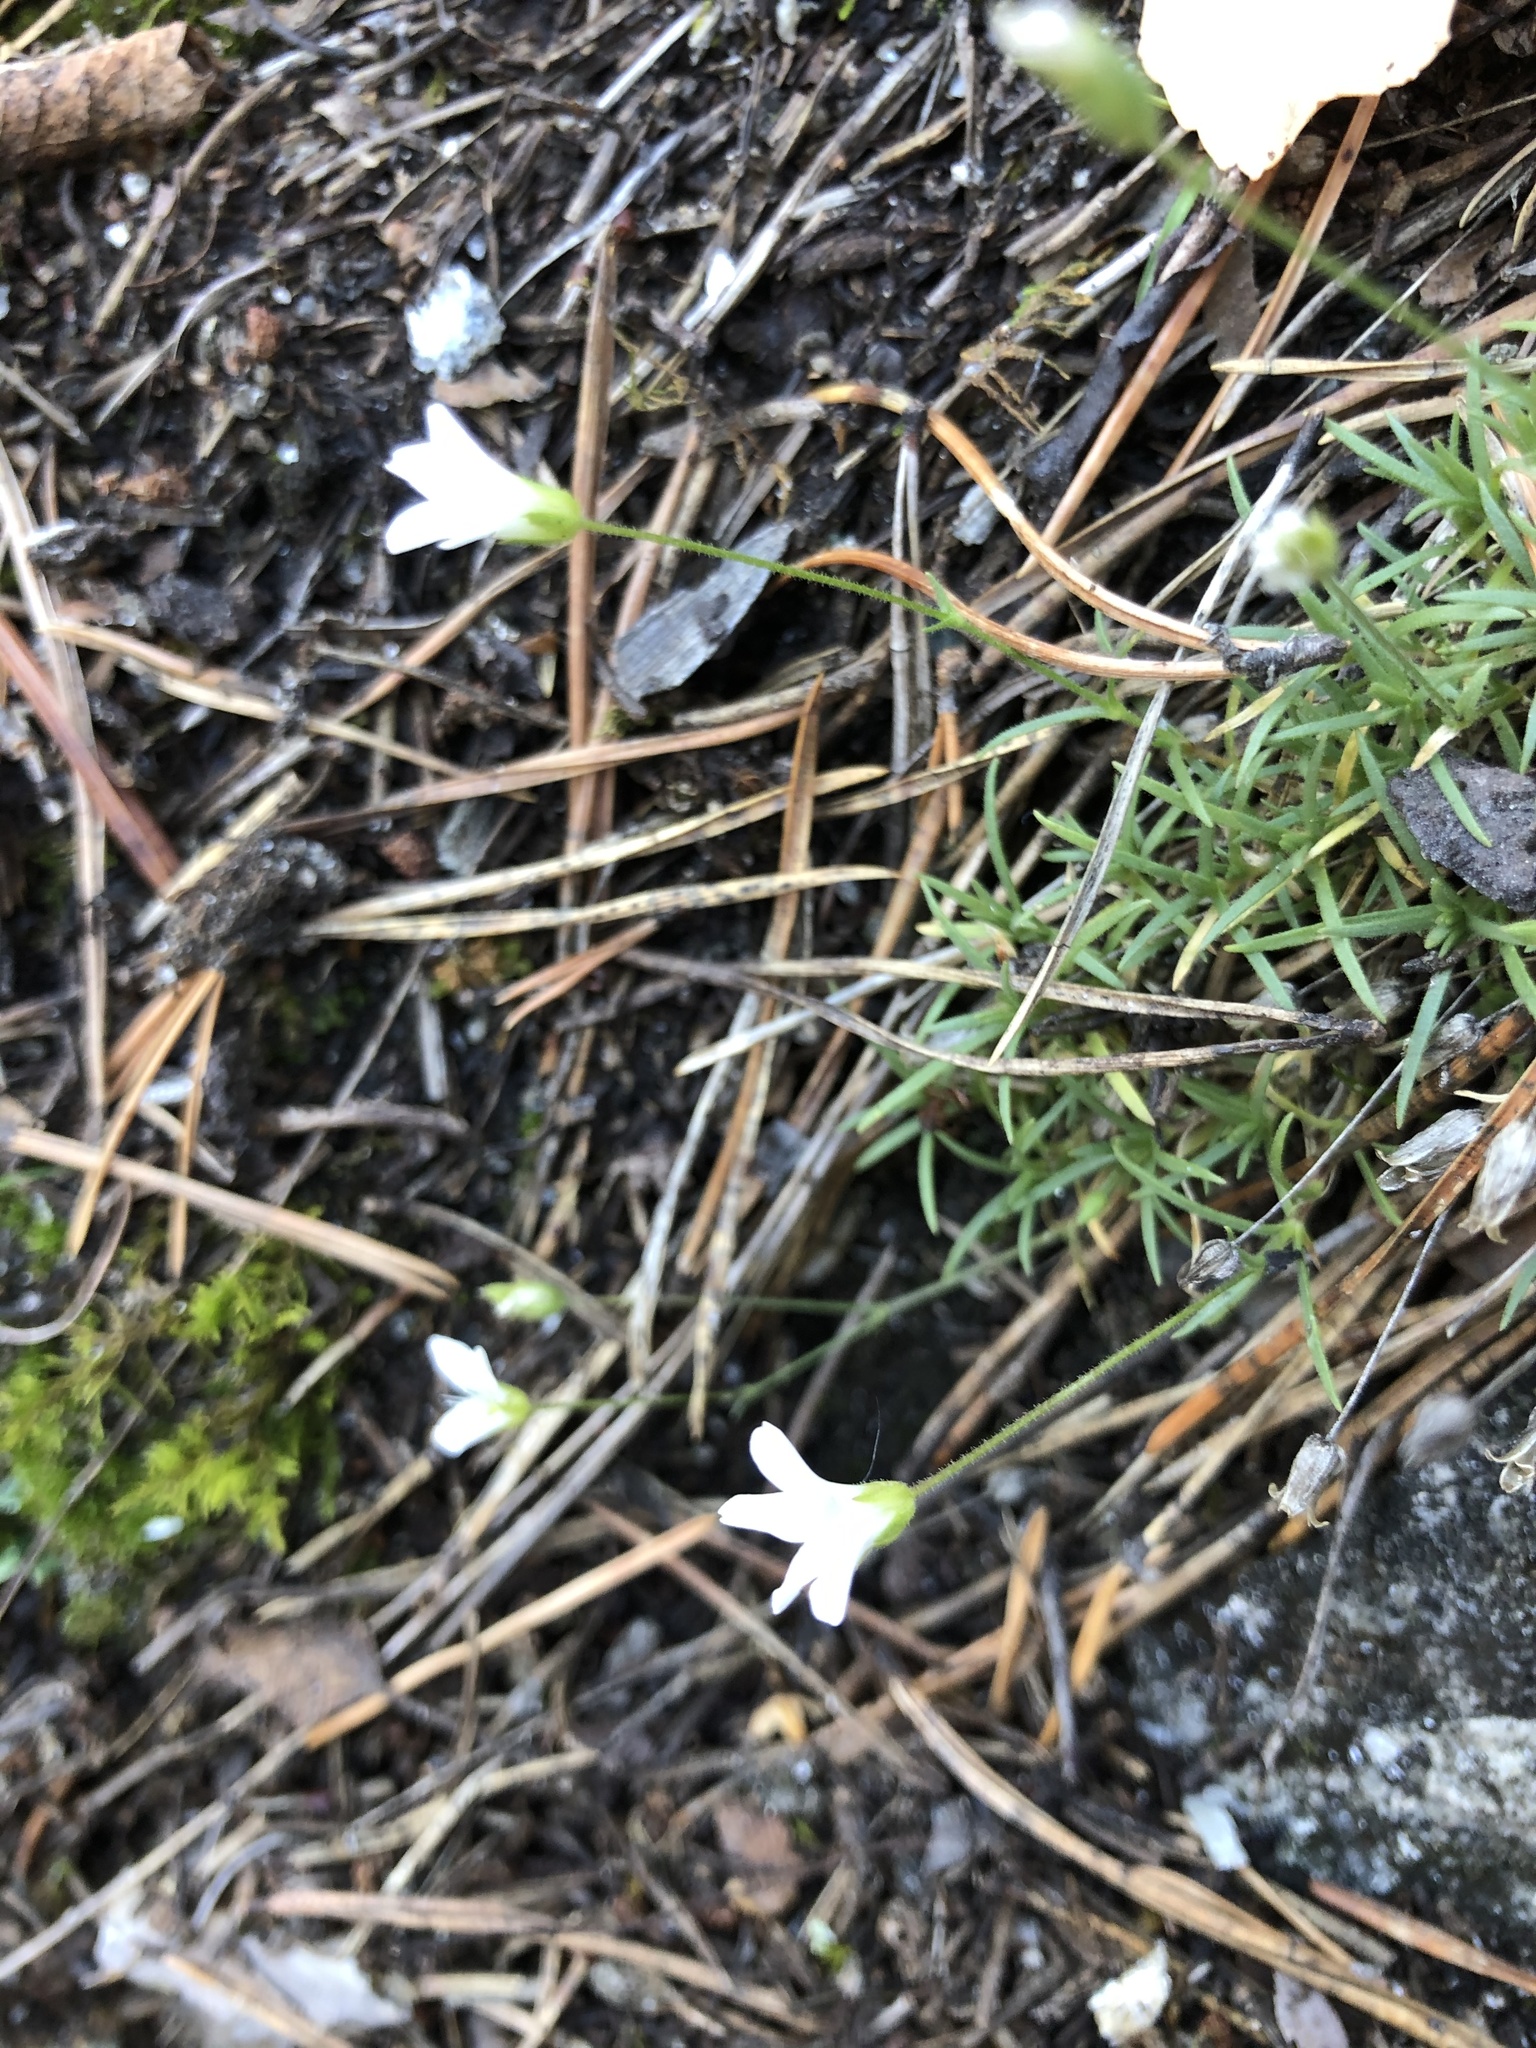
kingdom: Plantae
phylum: Tracheophyta
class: Magnoliopsida
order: Caryophyllales
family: Caryophyllaceae
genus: Sabulina
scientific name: Sabulina helmii
